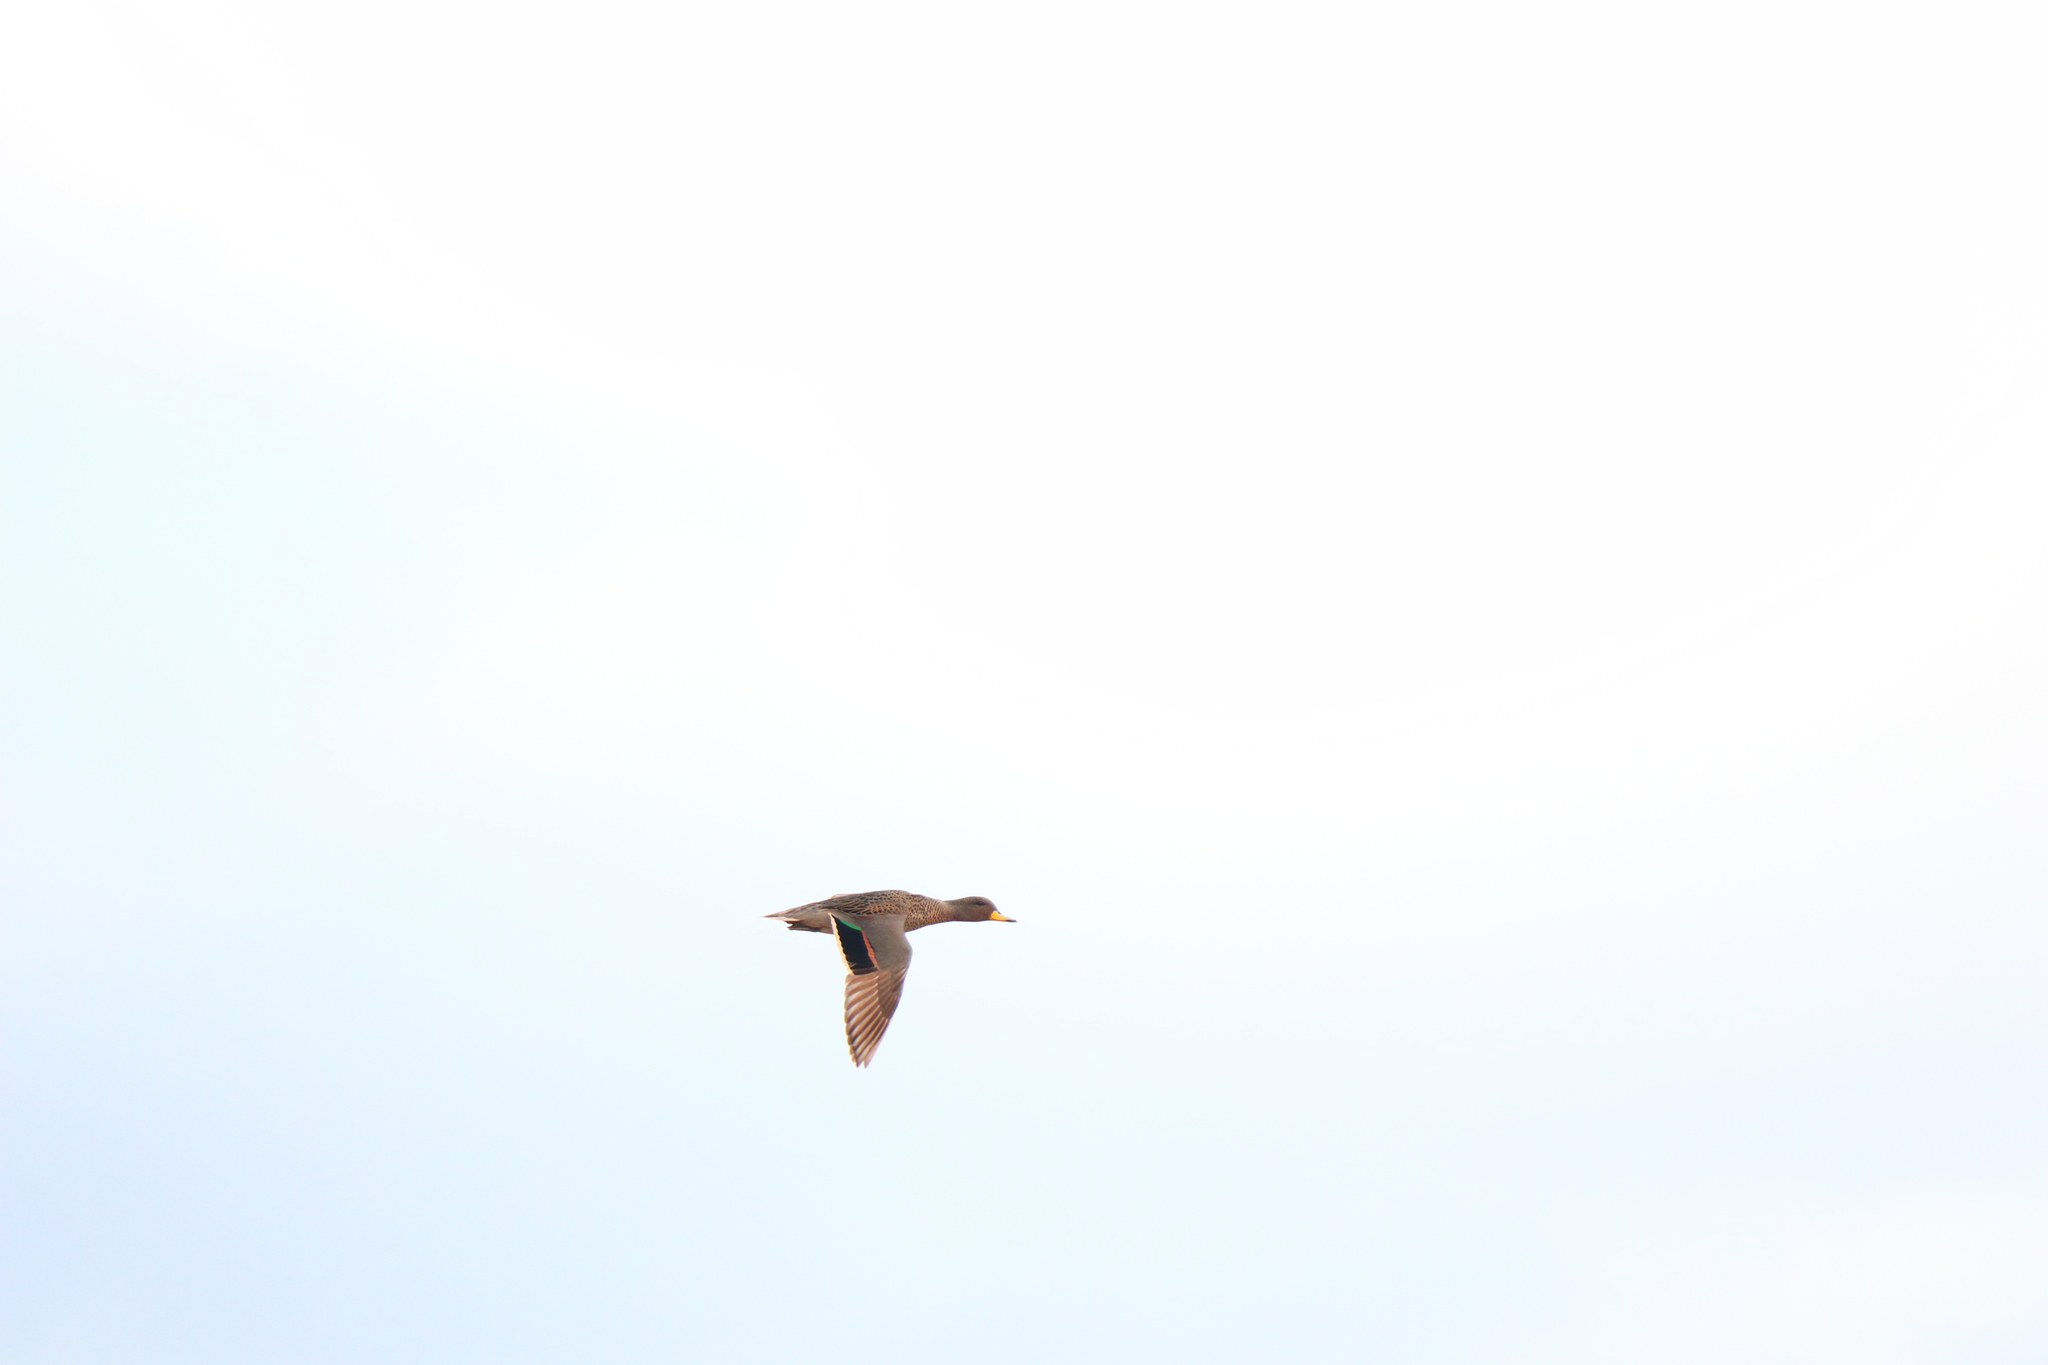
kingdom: Animalia
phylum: Chordata
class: Aves
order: Anseriformes
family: Anatidae
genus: Anas
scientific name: Anas flavirostris
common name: Yellow-billed teal
